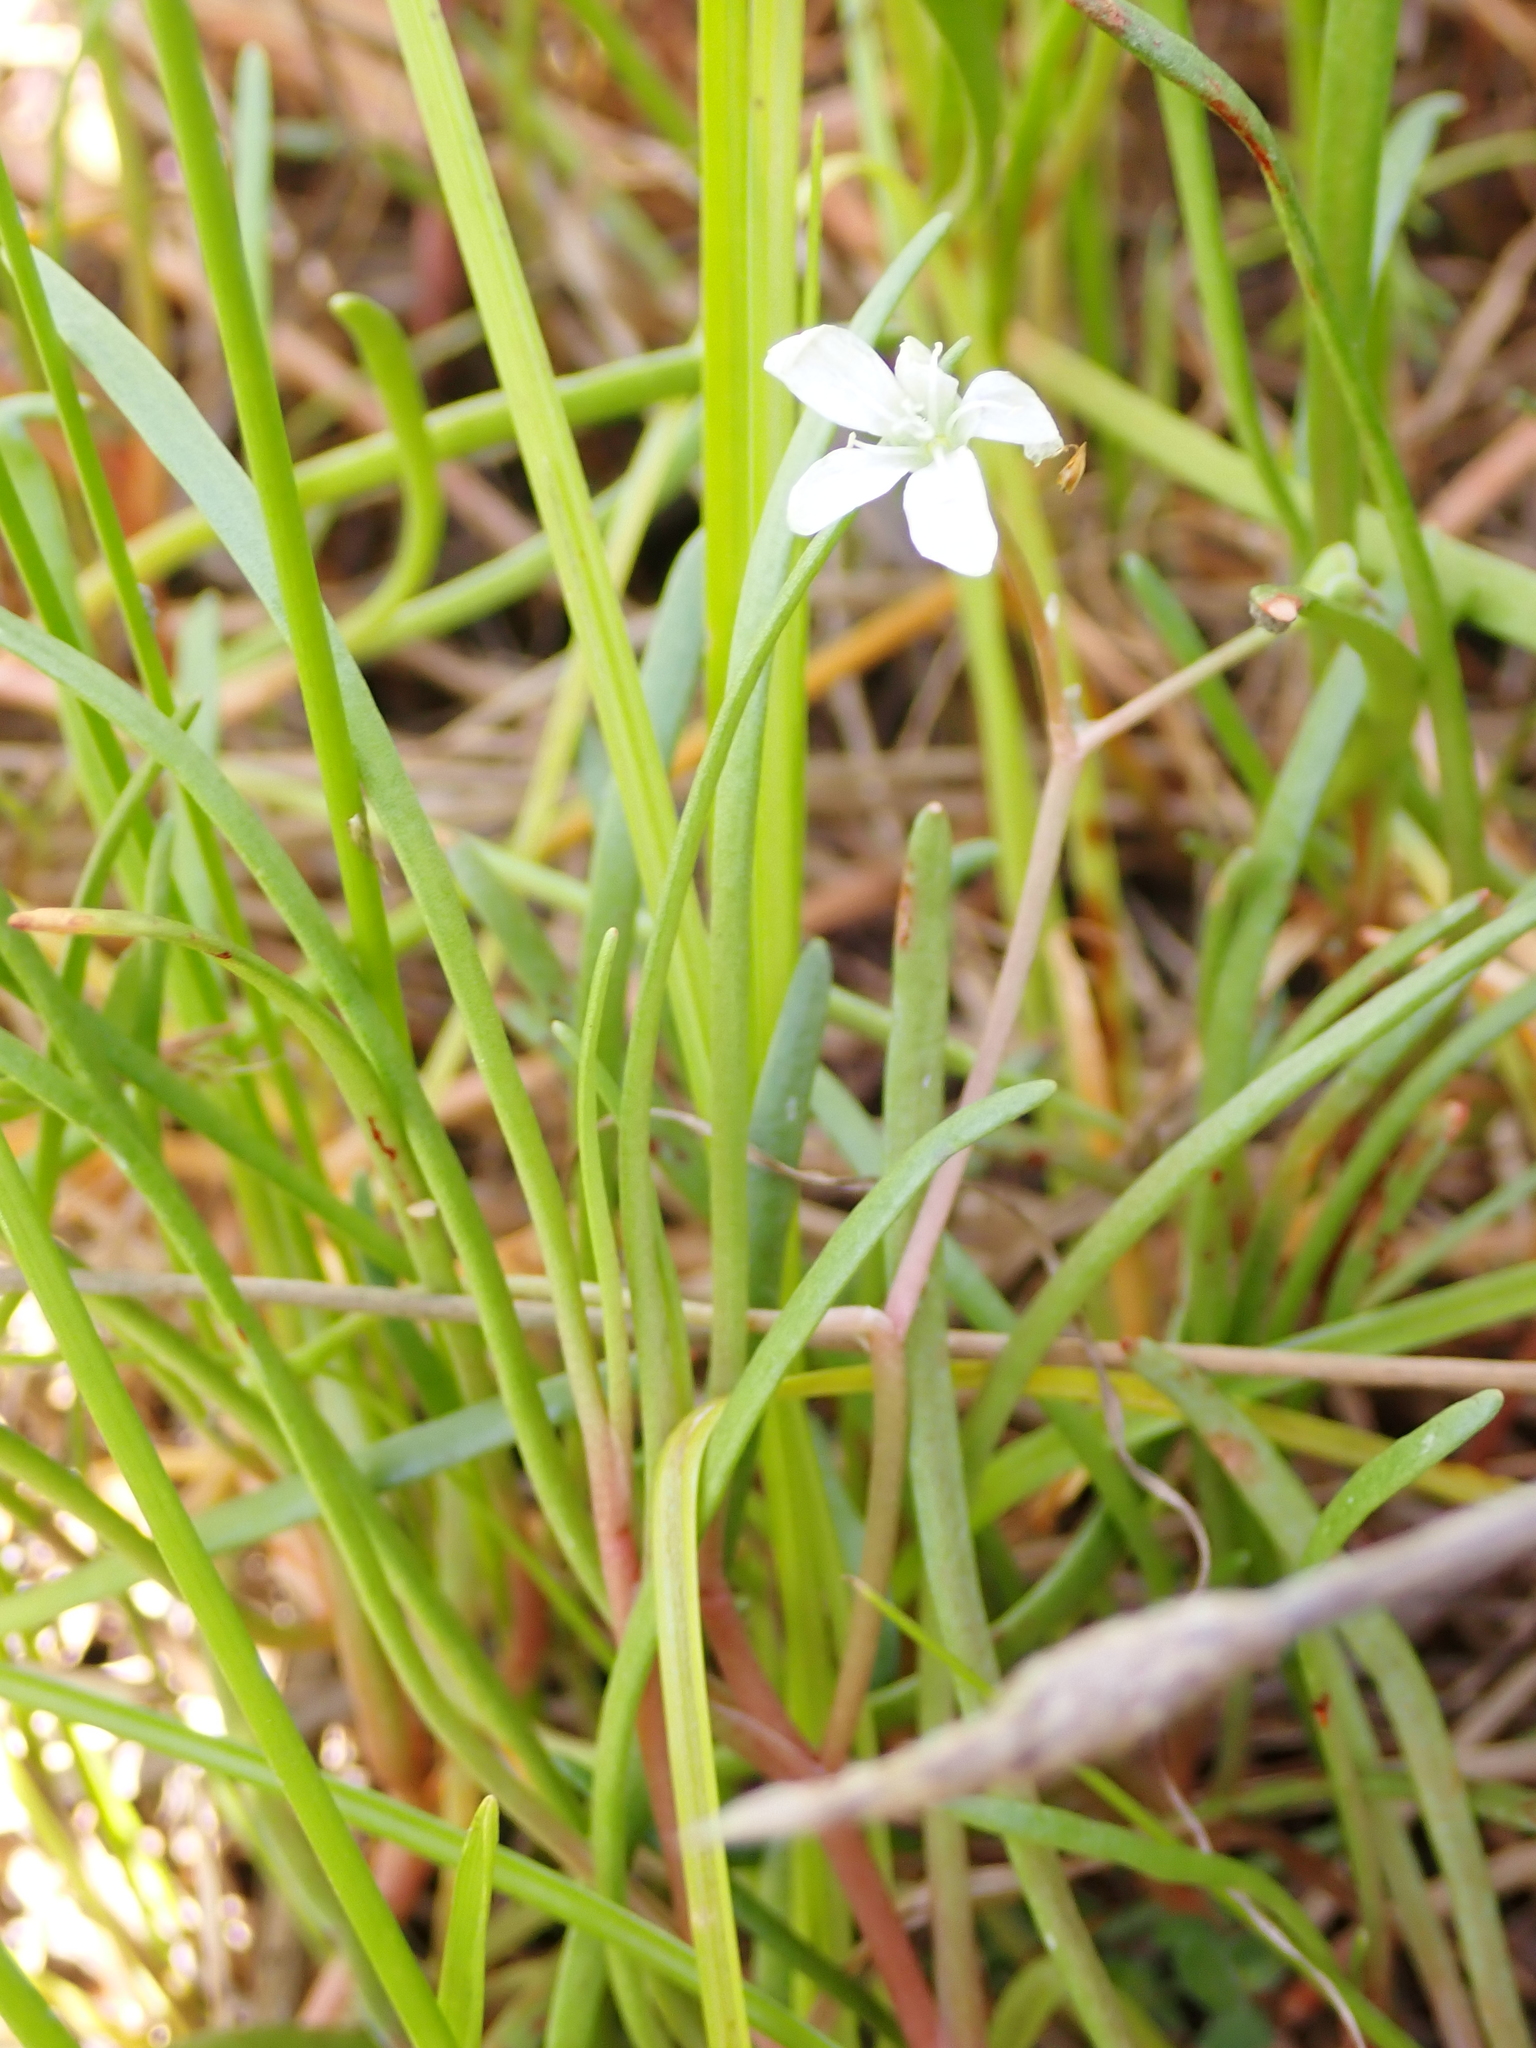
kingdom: Plantae
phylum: Tracheophyta
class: Magnoliopsida
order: Caryophyllales
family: Montiaceae
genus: Montia
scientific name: Montia australasica
